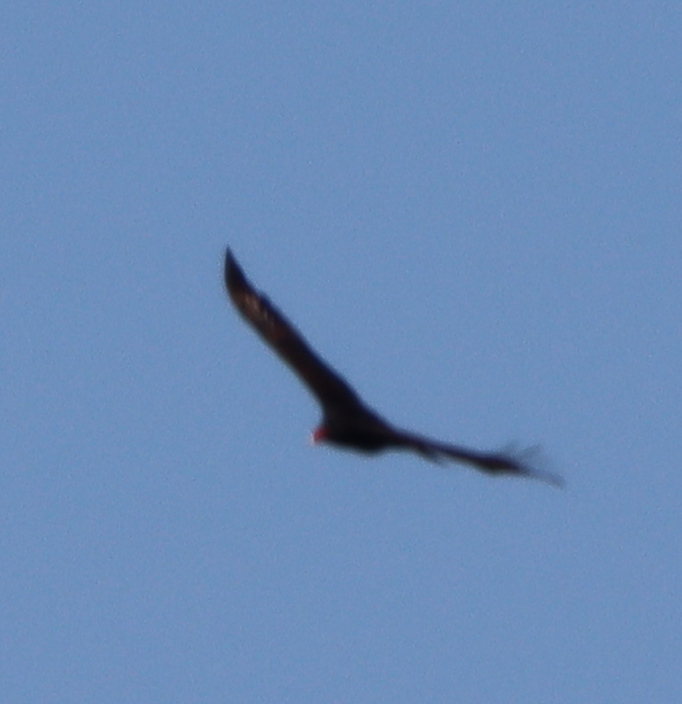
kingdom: Animalia
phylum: Chordata
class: Aves
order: Accipitriformes
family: Cathartidae
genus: Cathartes
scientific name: Cathartes aura
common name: Turkey vulture
